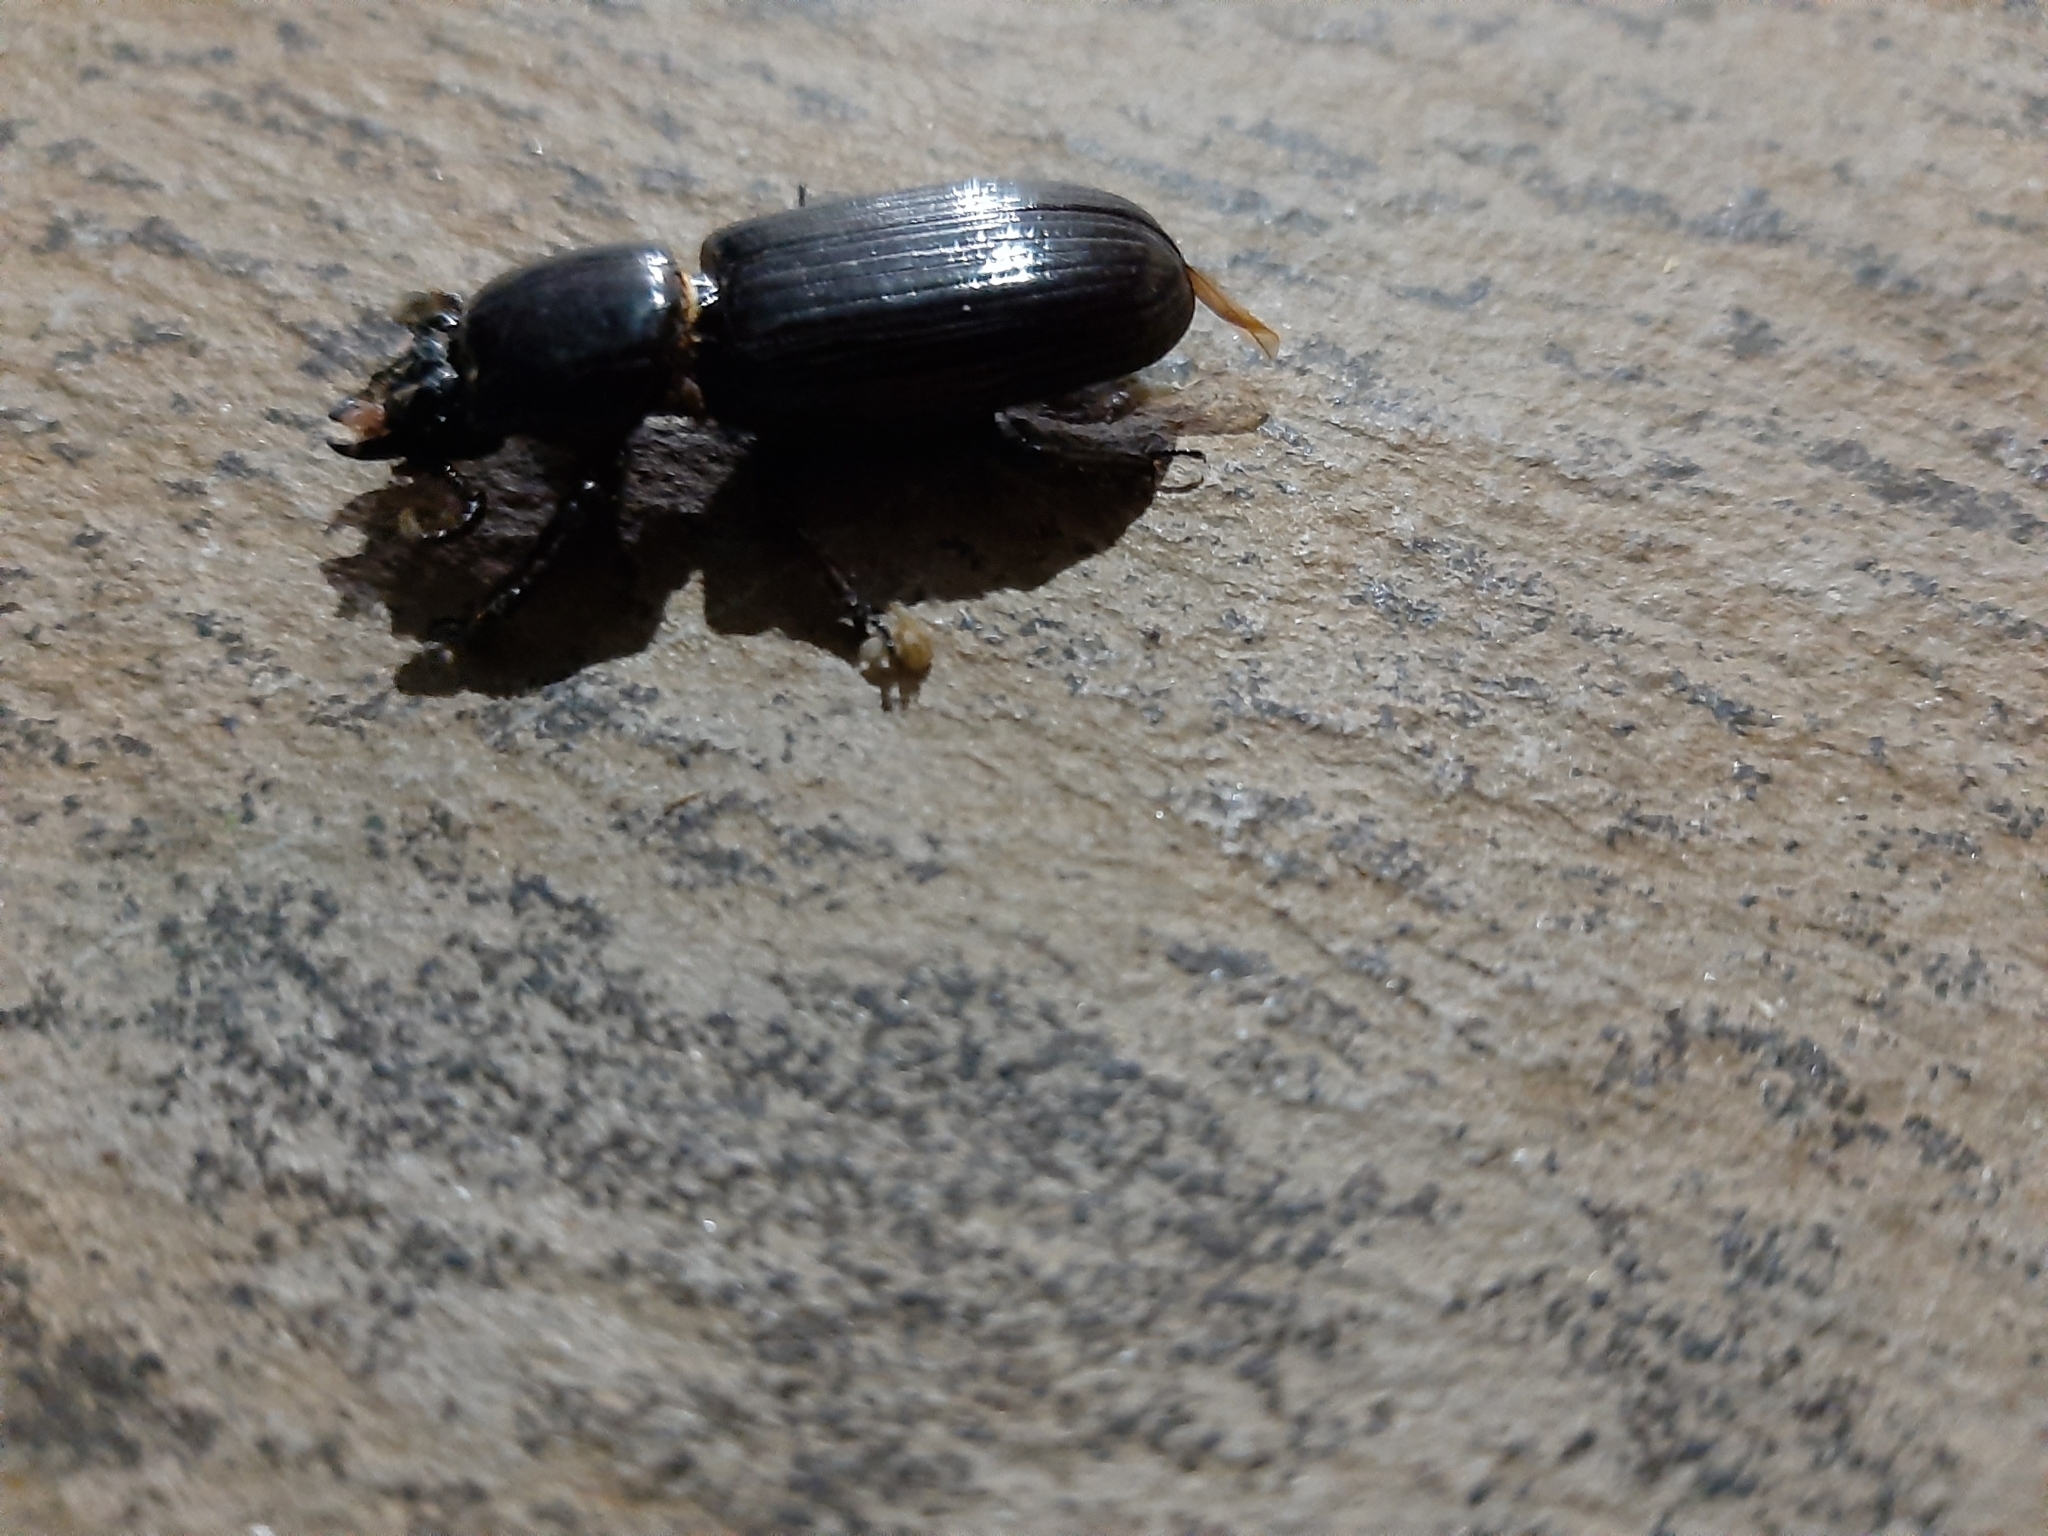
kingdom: Animalia
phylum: Arthropoda
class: Insecta
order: Coleoptera
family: Passalidae
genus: Ptichopus
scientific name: Ptichopus angulatus
